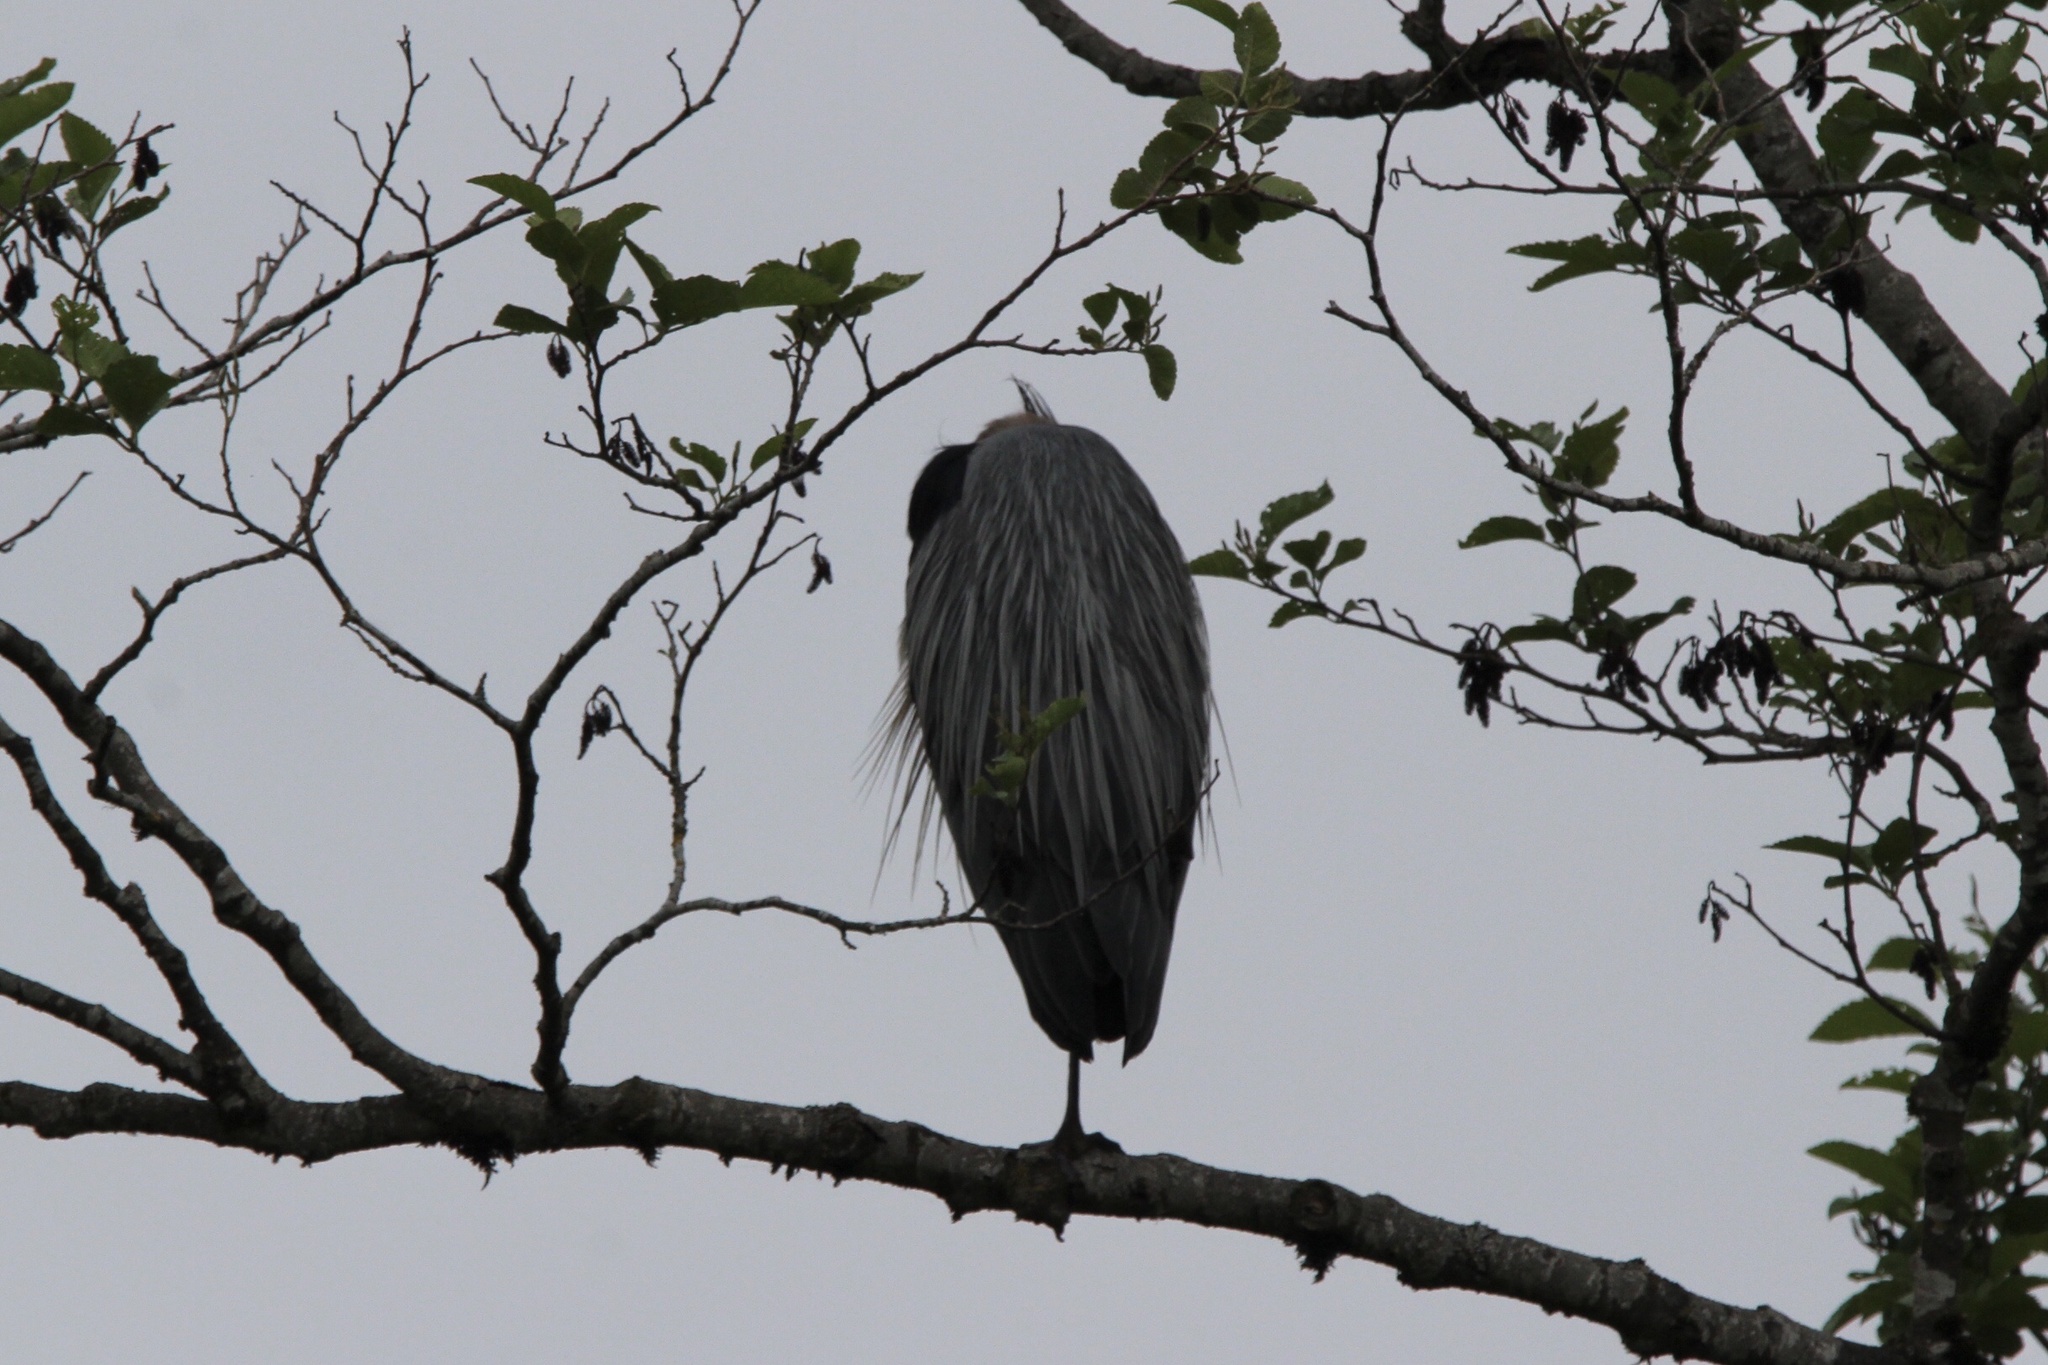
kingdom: Animalia
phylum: Chordata
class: Aves
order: Pelecaniformes
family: Ardeidae
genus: Ardea
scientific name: Ardea herodias
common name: Great blue heron
